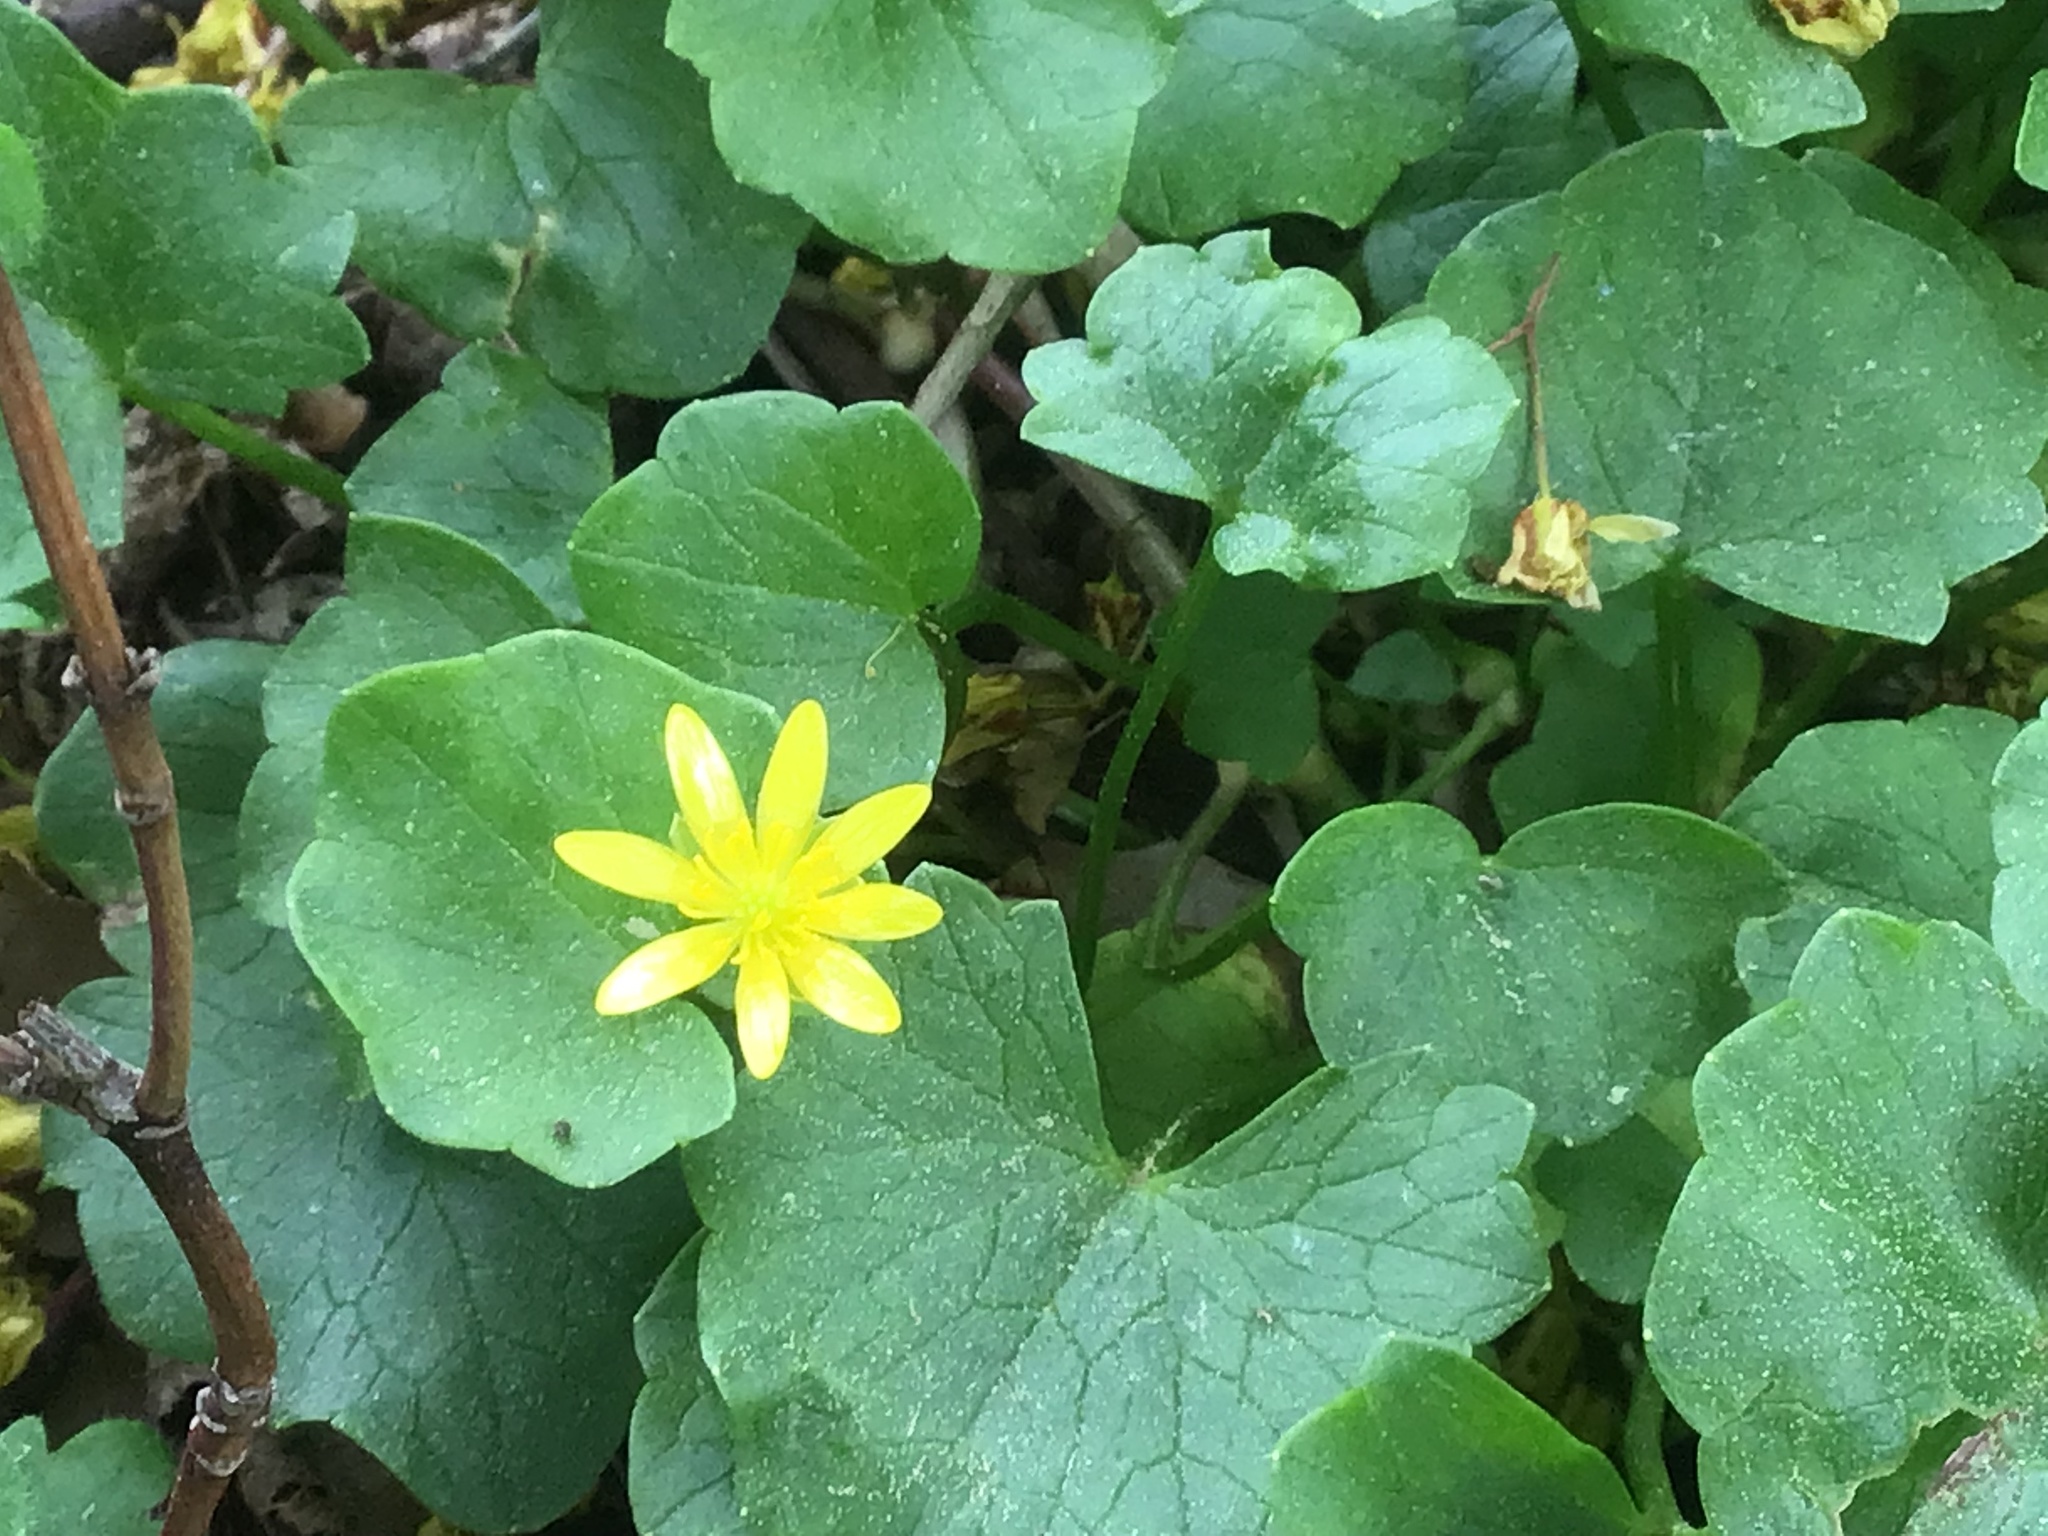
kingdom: Plantae
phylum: Tracheophyta
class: Magnoliopsida
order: Ranunculales
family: Ranunculaceae
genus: Ficaria
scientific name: Ficaria verna
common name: Lesser celandine
